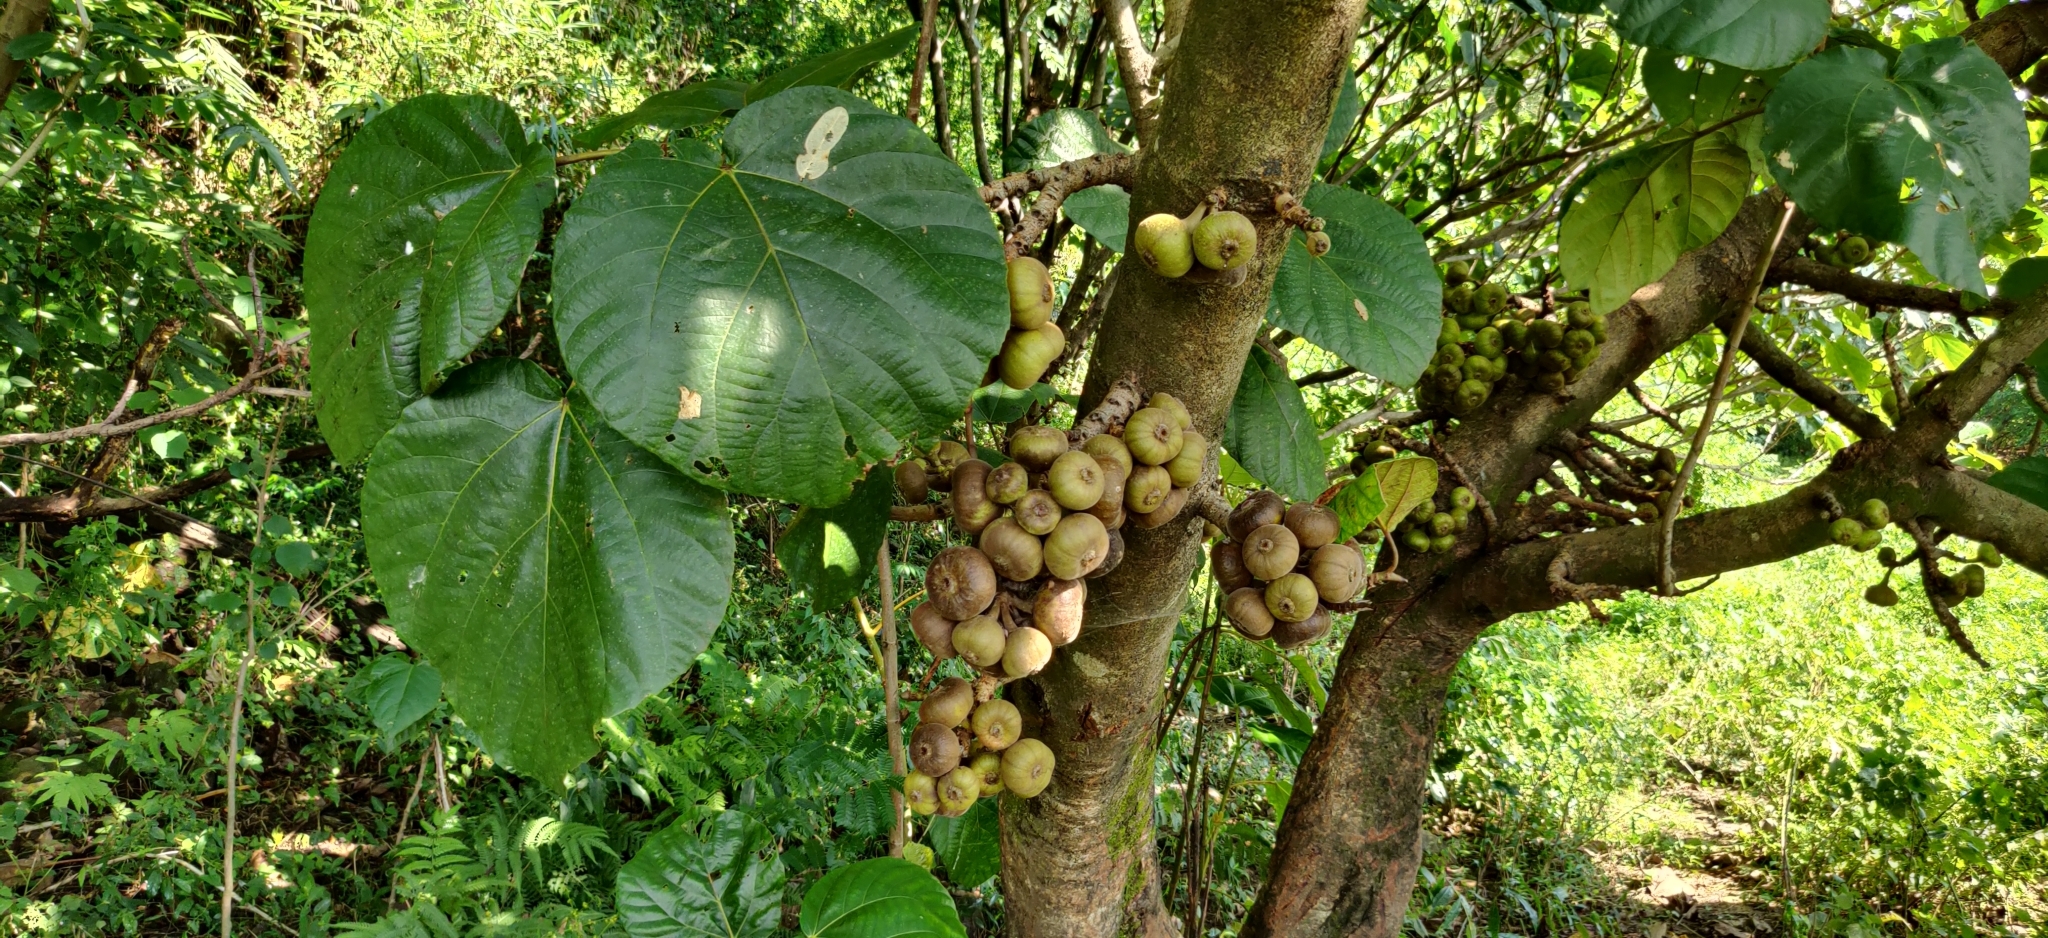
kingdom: Plantae
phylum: Tracheophyta
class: Magnoliopsida
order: Rosales
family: Moraceae
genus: Ficus
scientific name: Ficus auriculata
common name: Roxburgh fig
